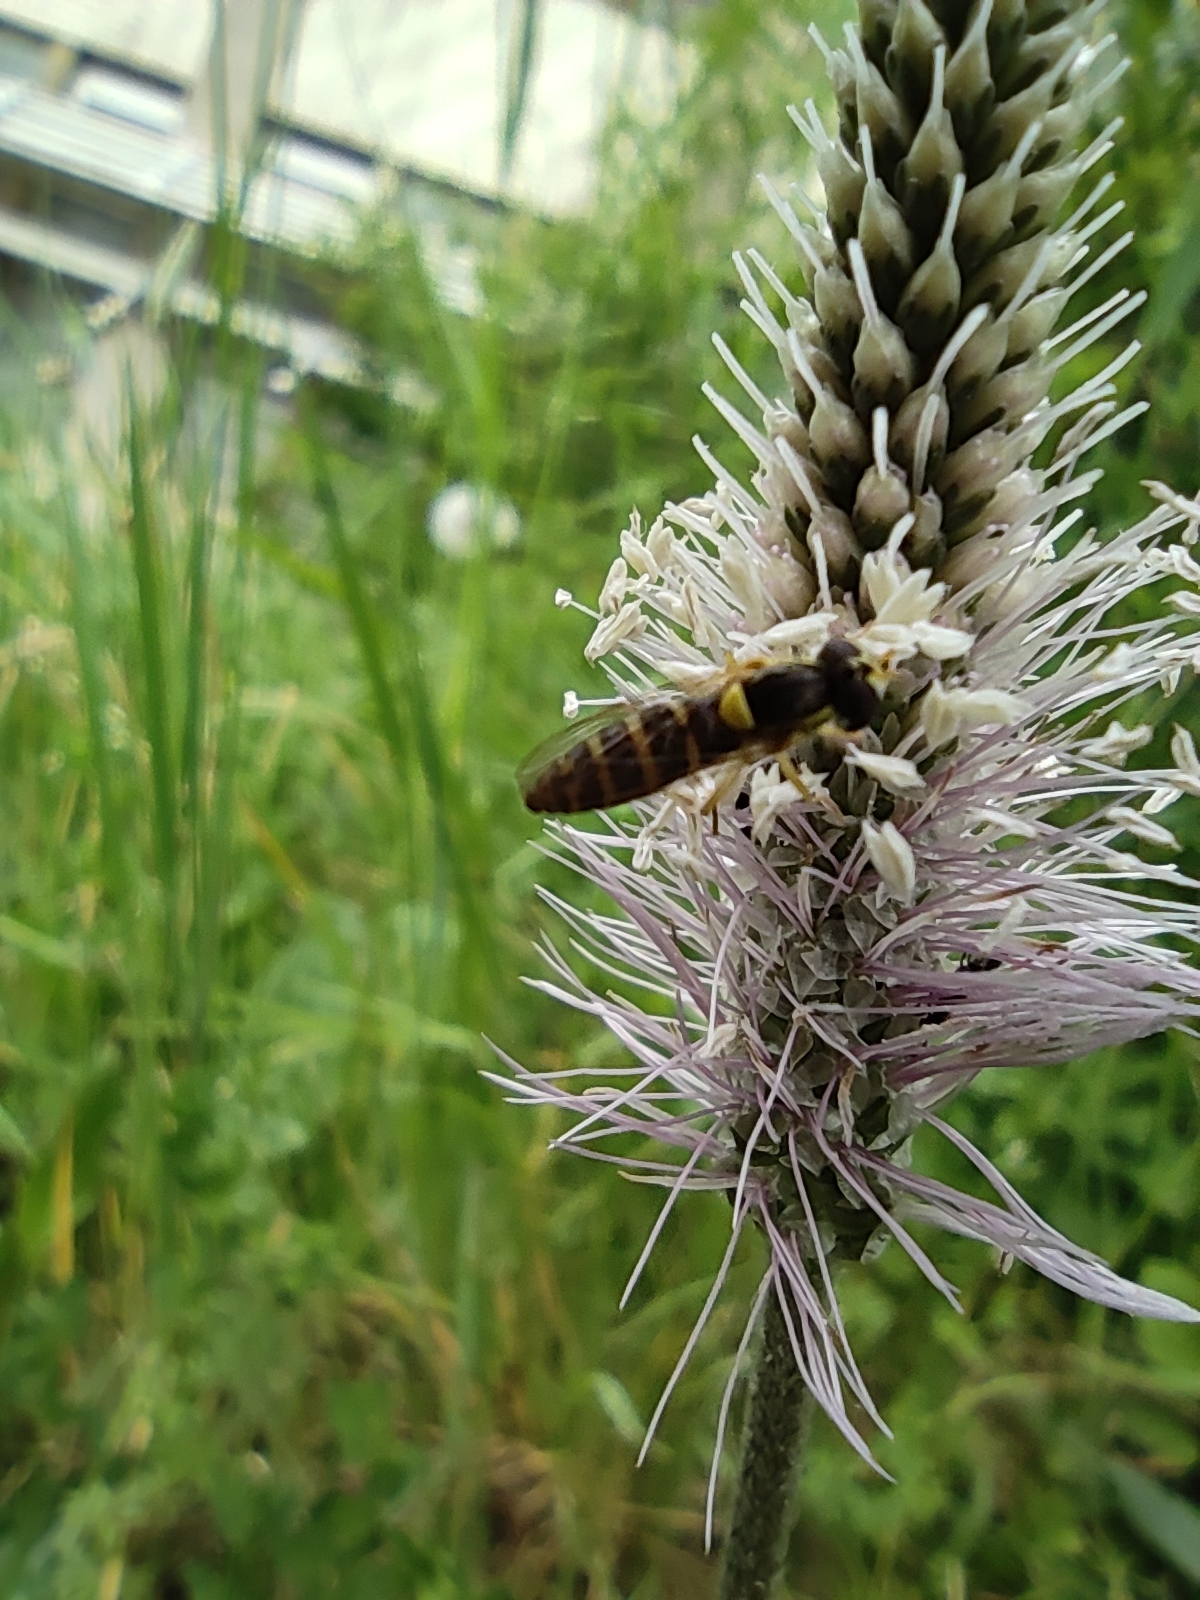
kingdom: Animalia
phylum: Arthropoda
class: Insecta
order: Diptera
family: Syrphidae
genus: Sphaerophoria
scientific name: Sphaerophoria
